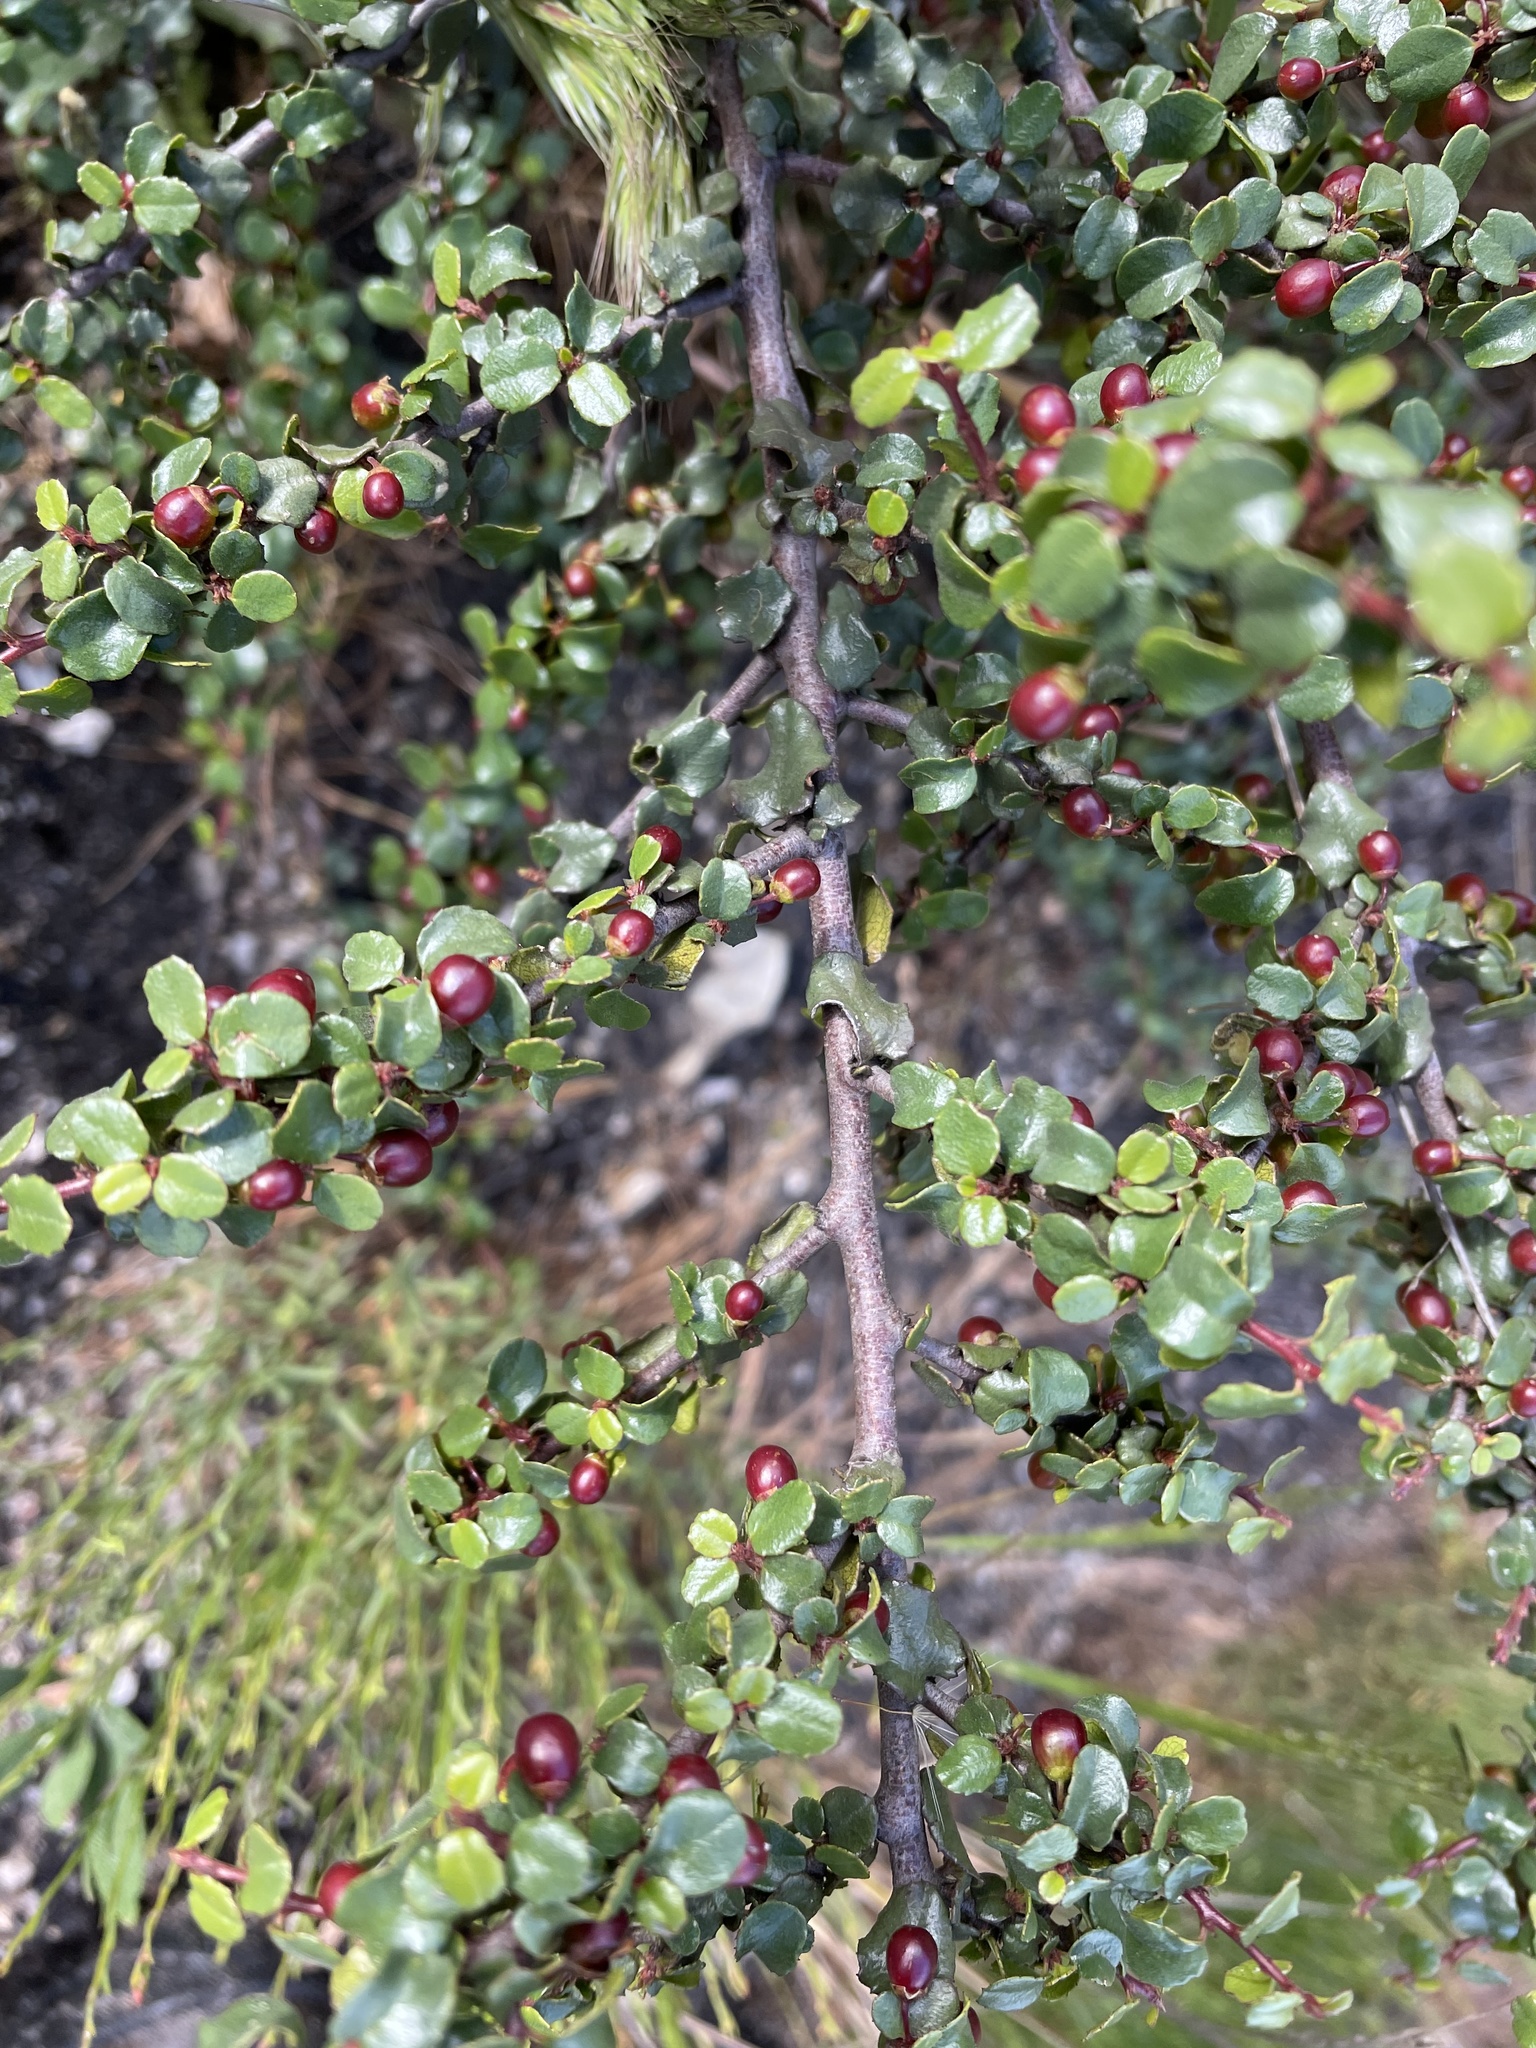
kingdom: Plantae
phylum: Tracheophyta
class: Magnoliopsida
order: Rosales
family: Rhamnaceae
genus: Endotropis
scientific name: Endotropis crocea
